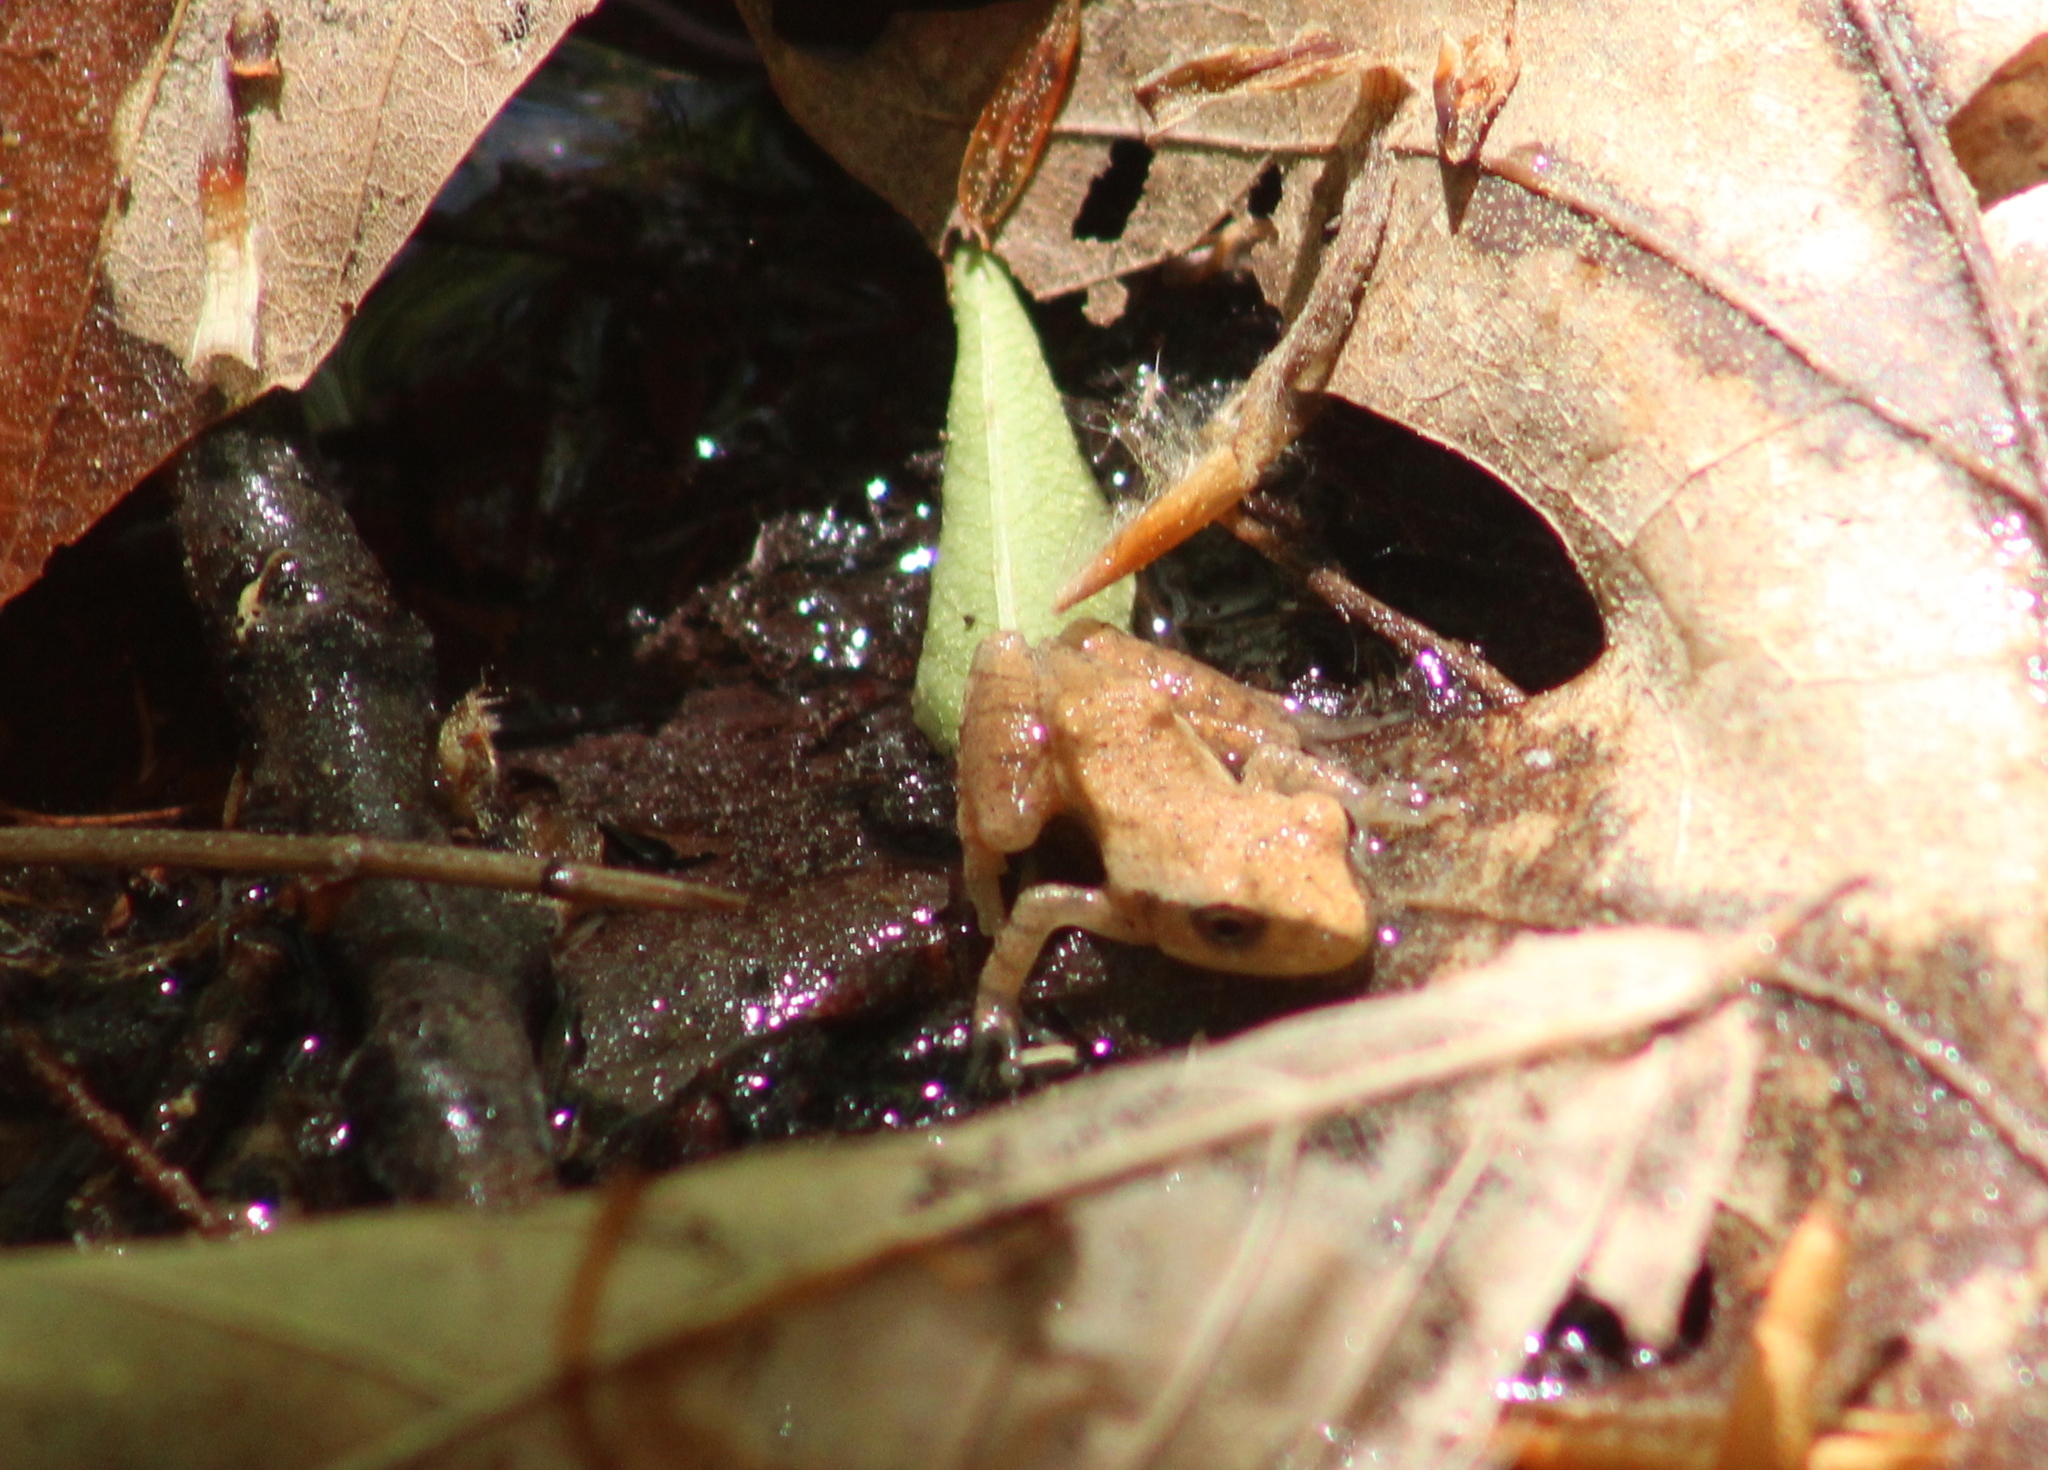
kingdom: Animalia
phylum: Chordata
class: Amphibia
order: Anura
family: Hylidae
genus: Pseudacris
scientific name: Pseudacris crucifer
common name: Spring peeper
